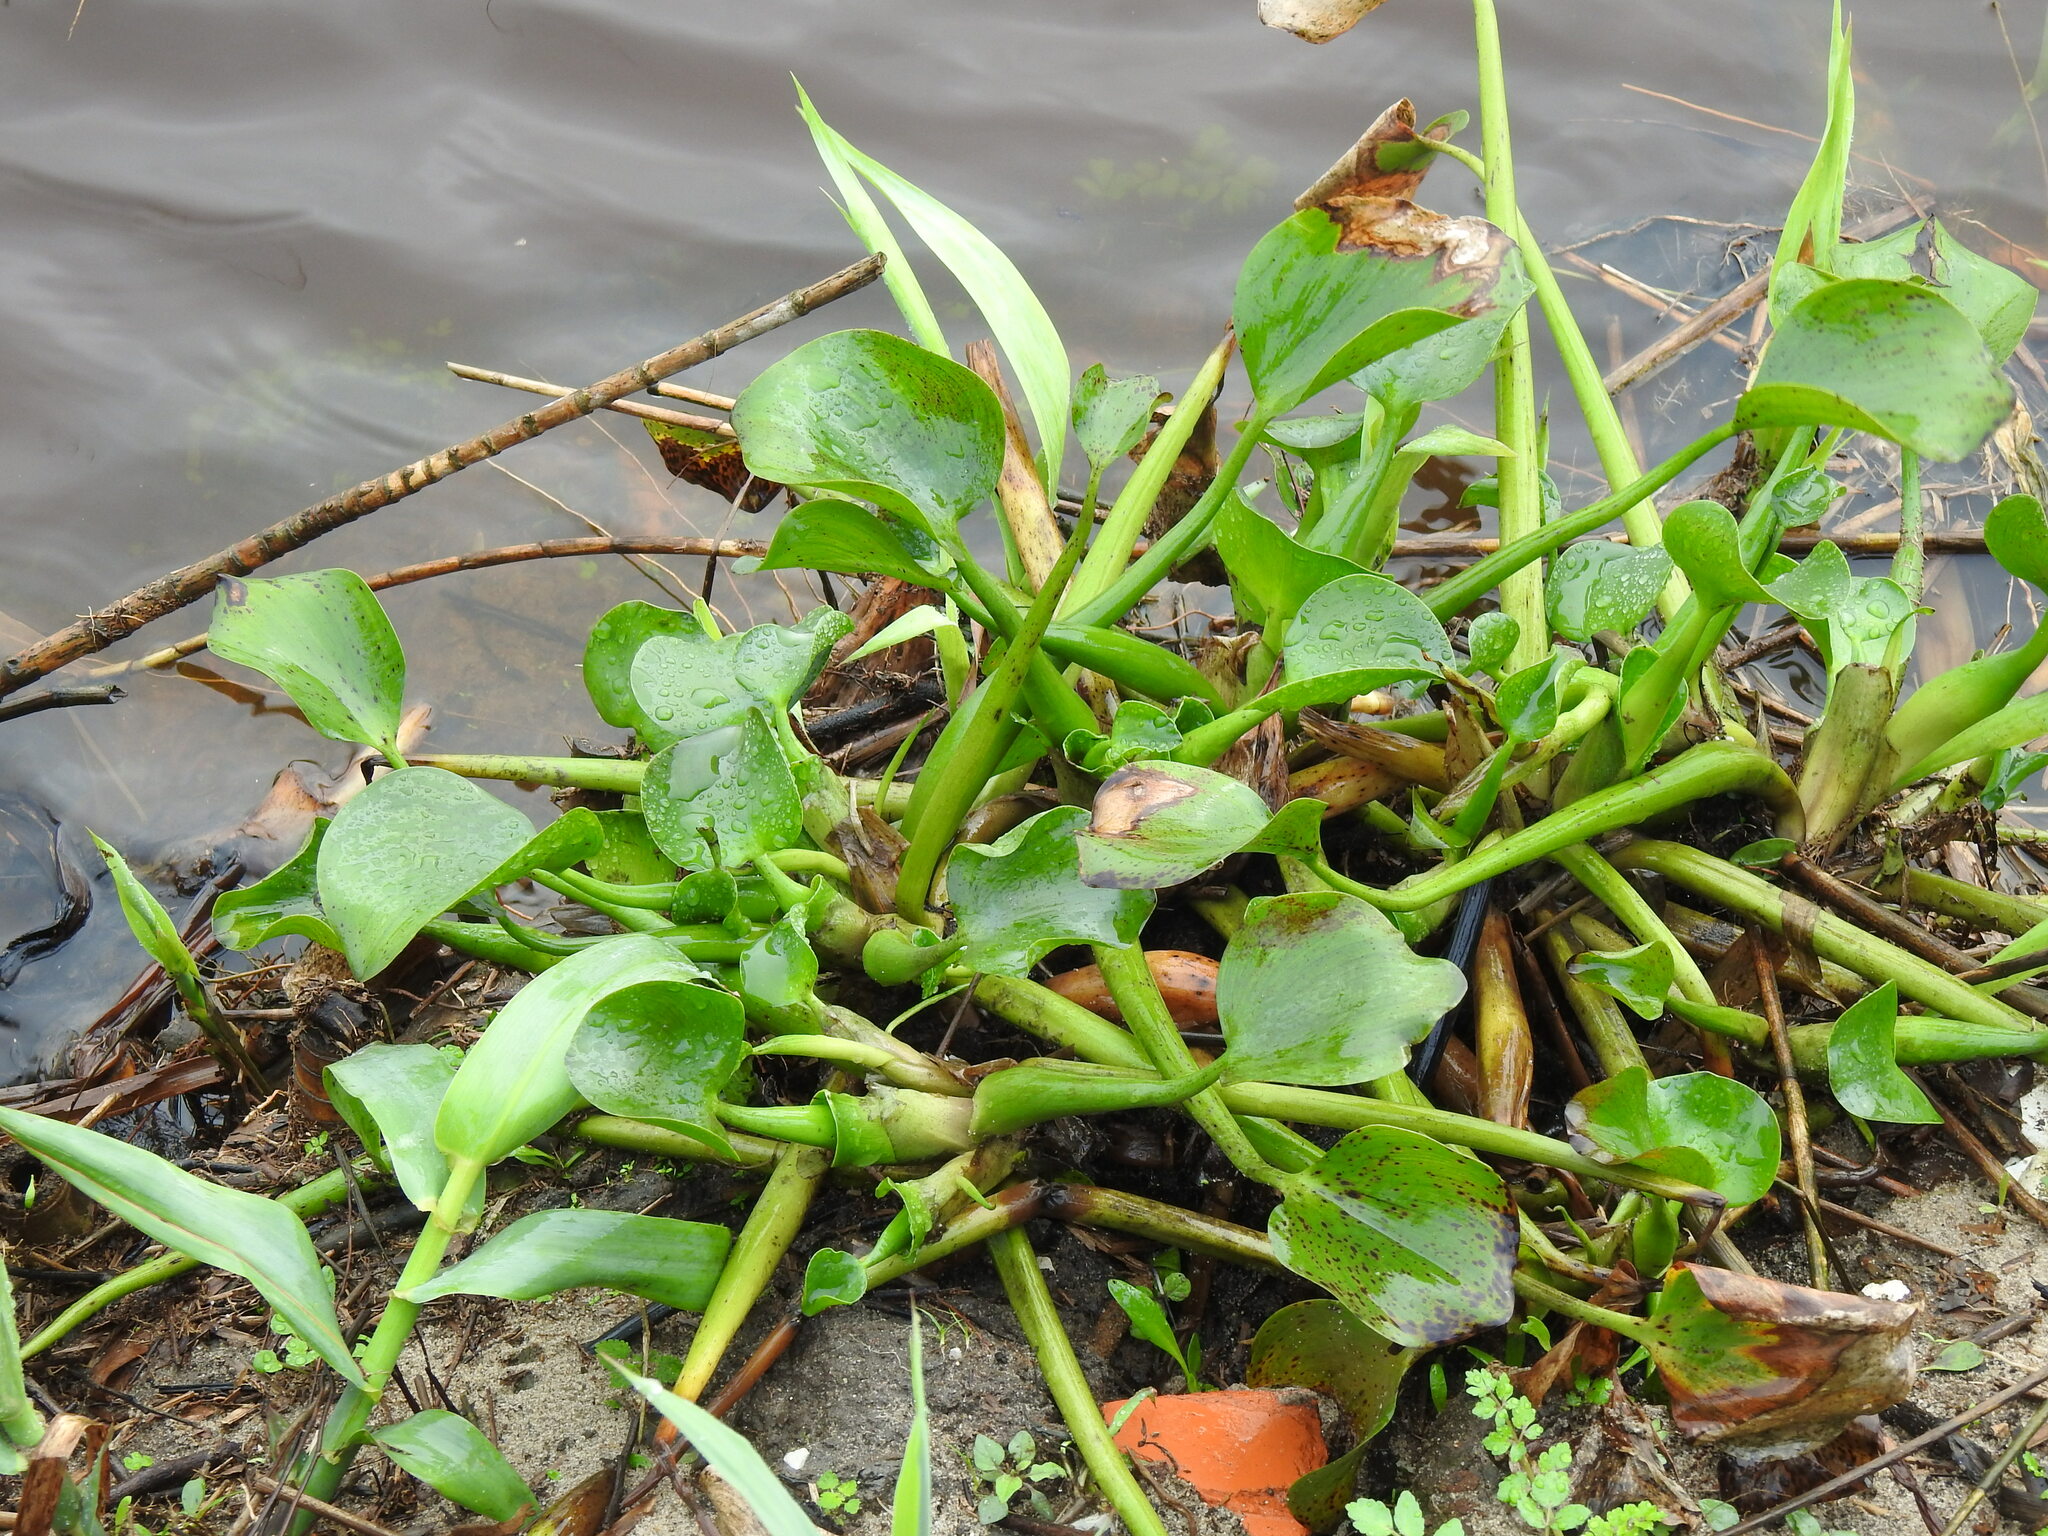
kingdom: Plantae
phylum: Tracheophyta
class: Liliopsida
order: Commelinales
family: Pontederiaceae
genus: Pontederia
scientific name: Pontederia crassipes
